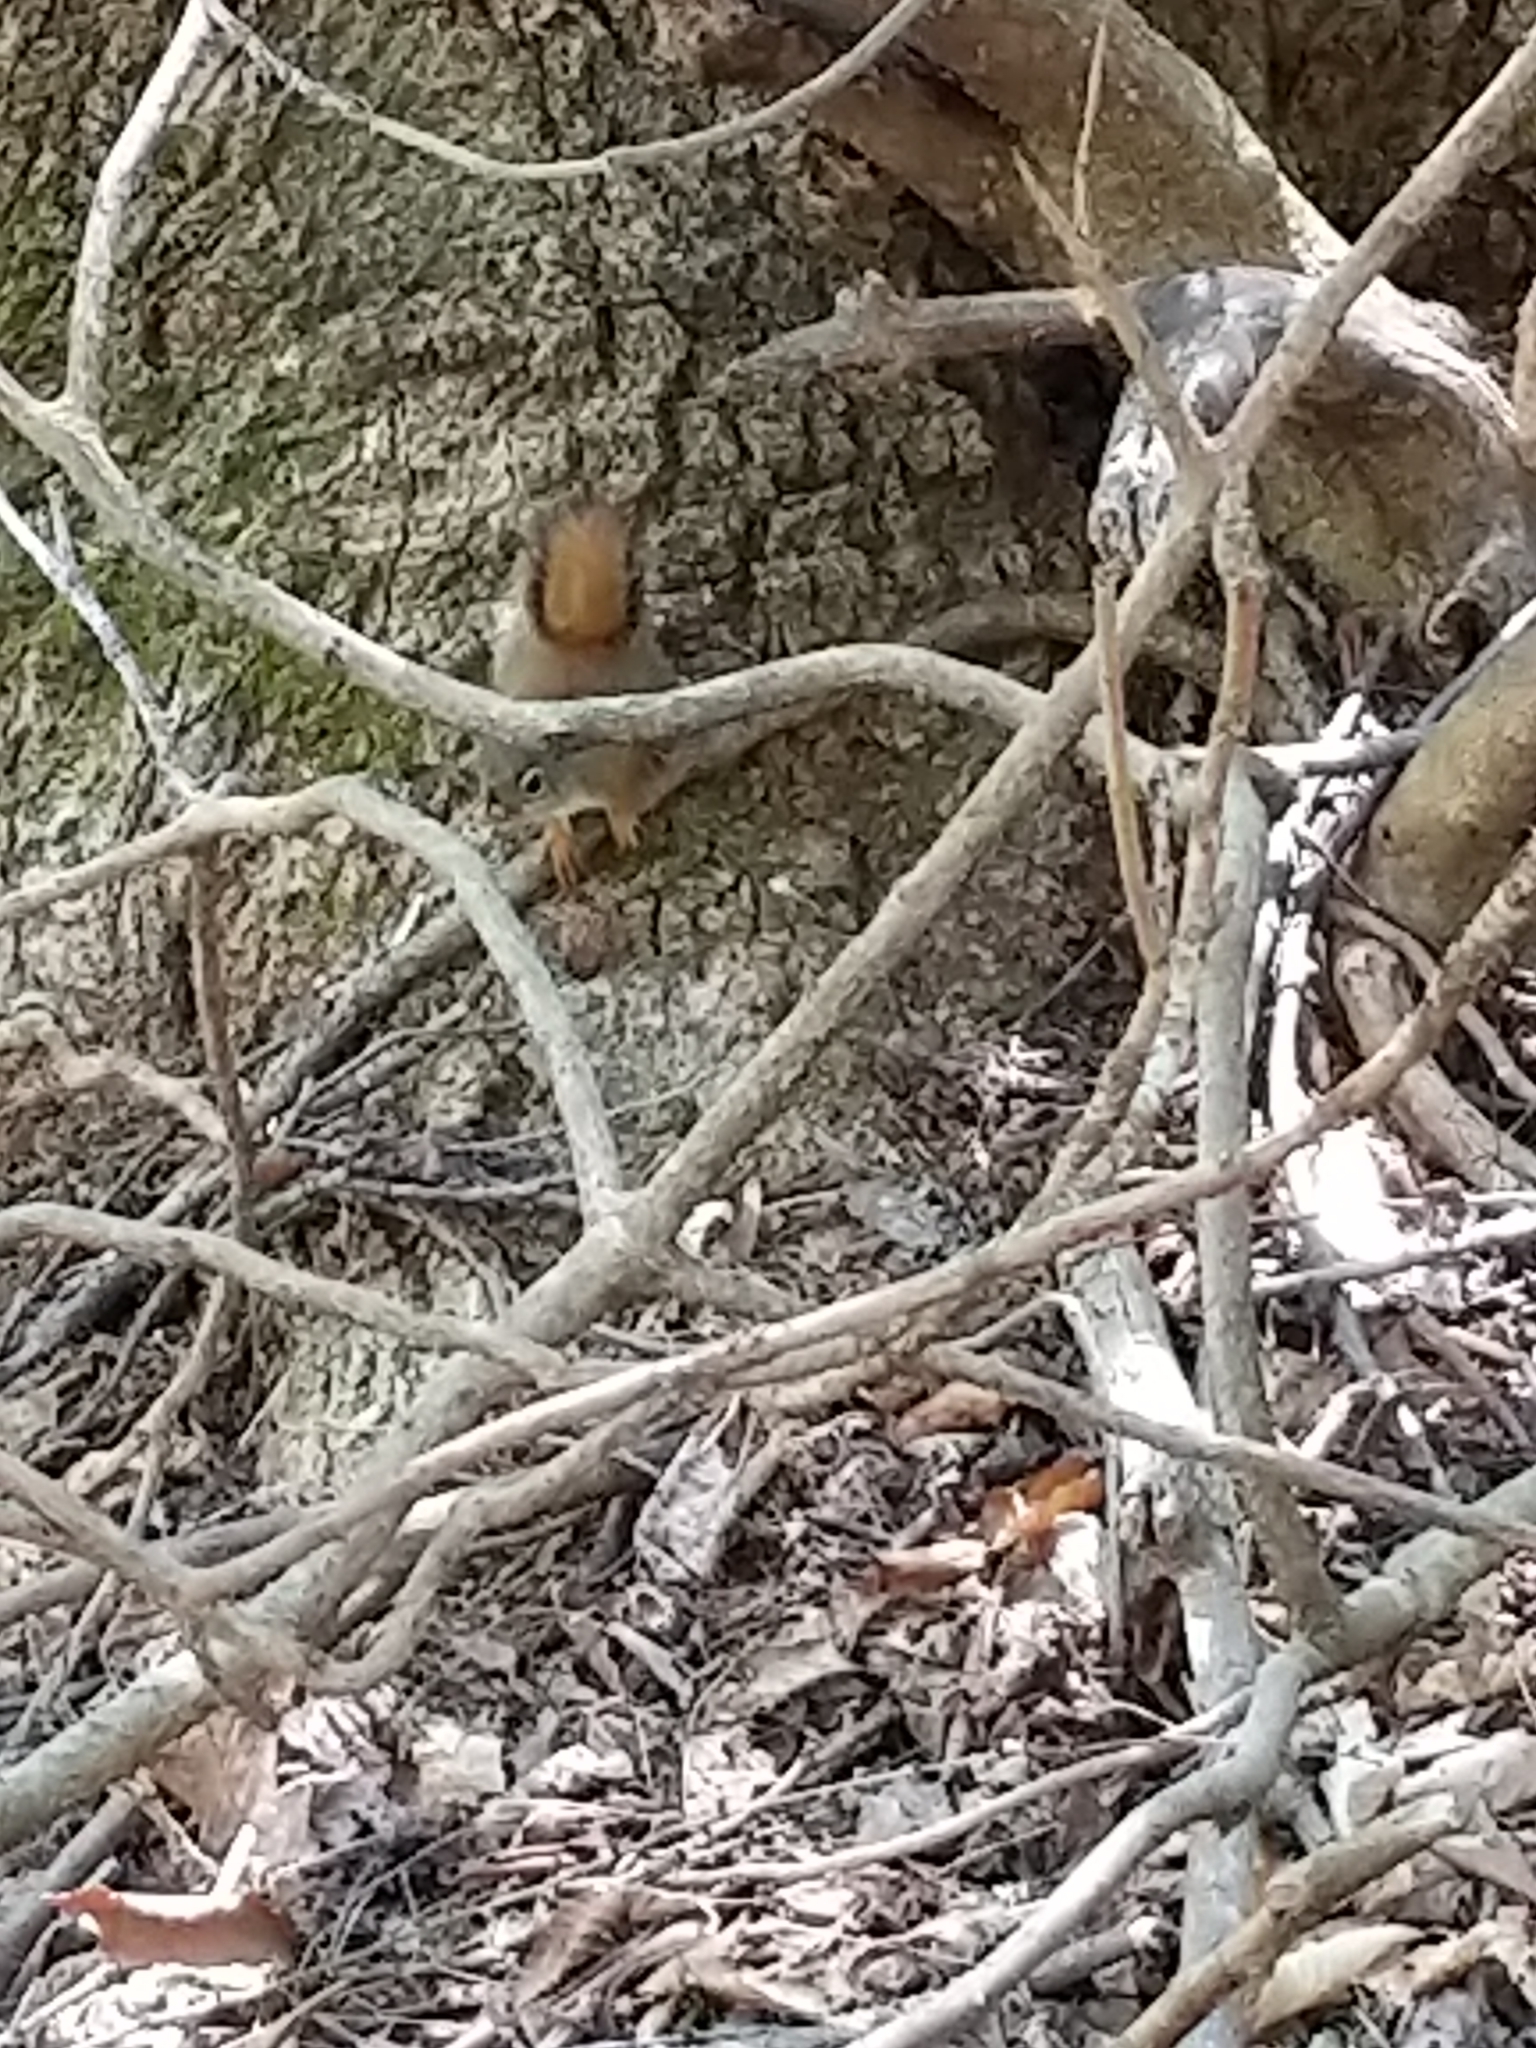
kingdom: Animalia
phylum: Chordata
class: Mammalia
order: Rodentia
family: Sciuridae
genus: Tamiasciurus
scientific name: Tamiasciurus hudsonicus
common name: Red squirrel
